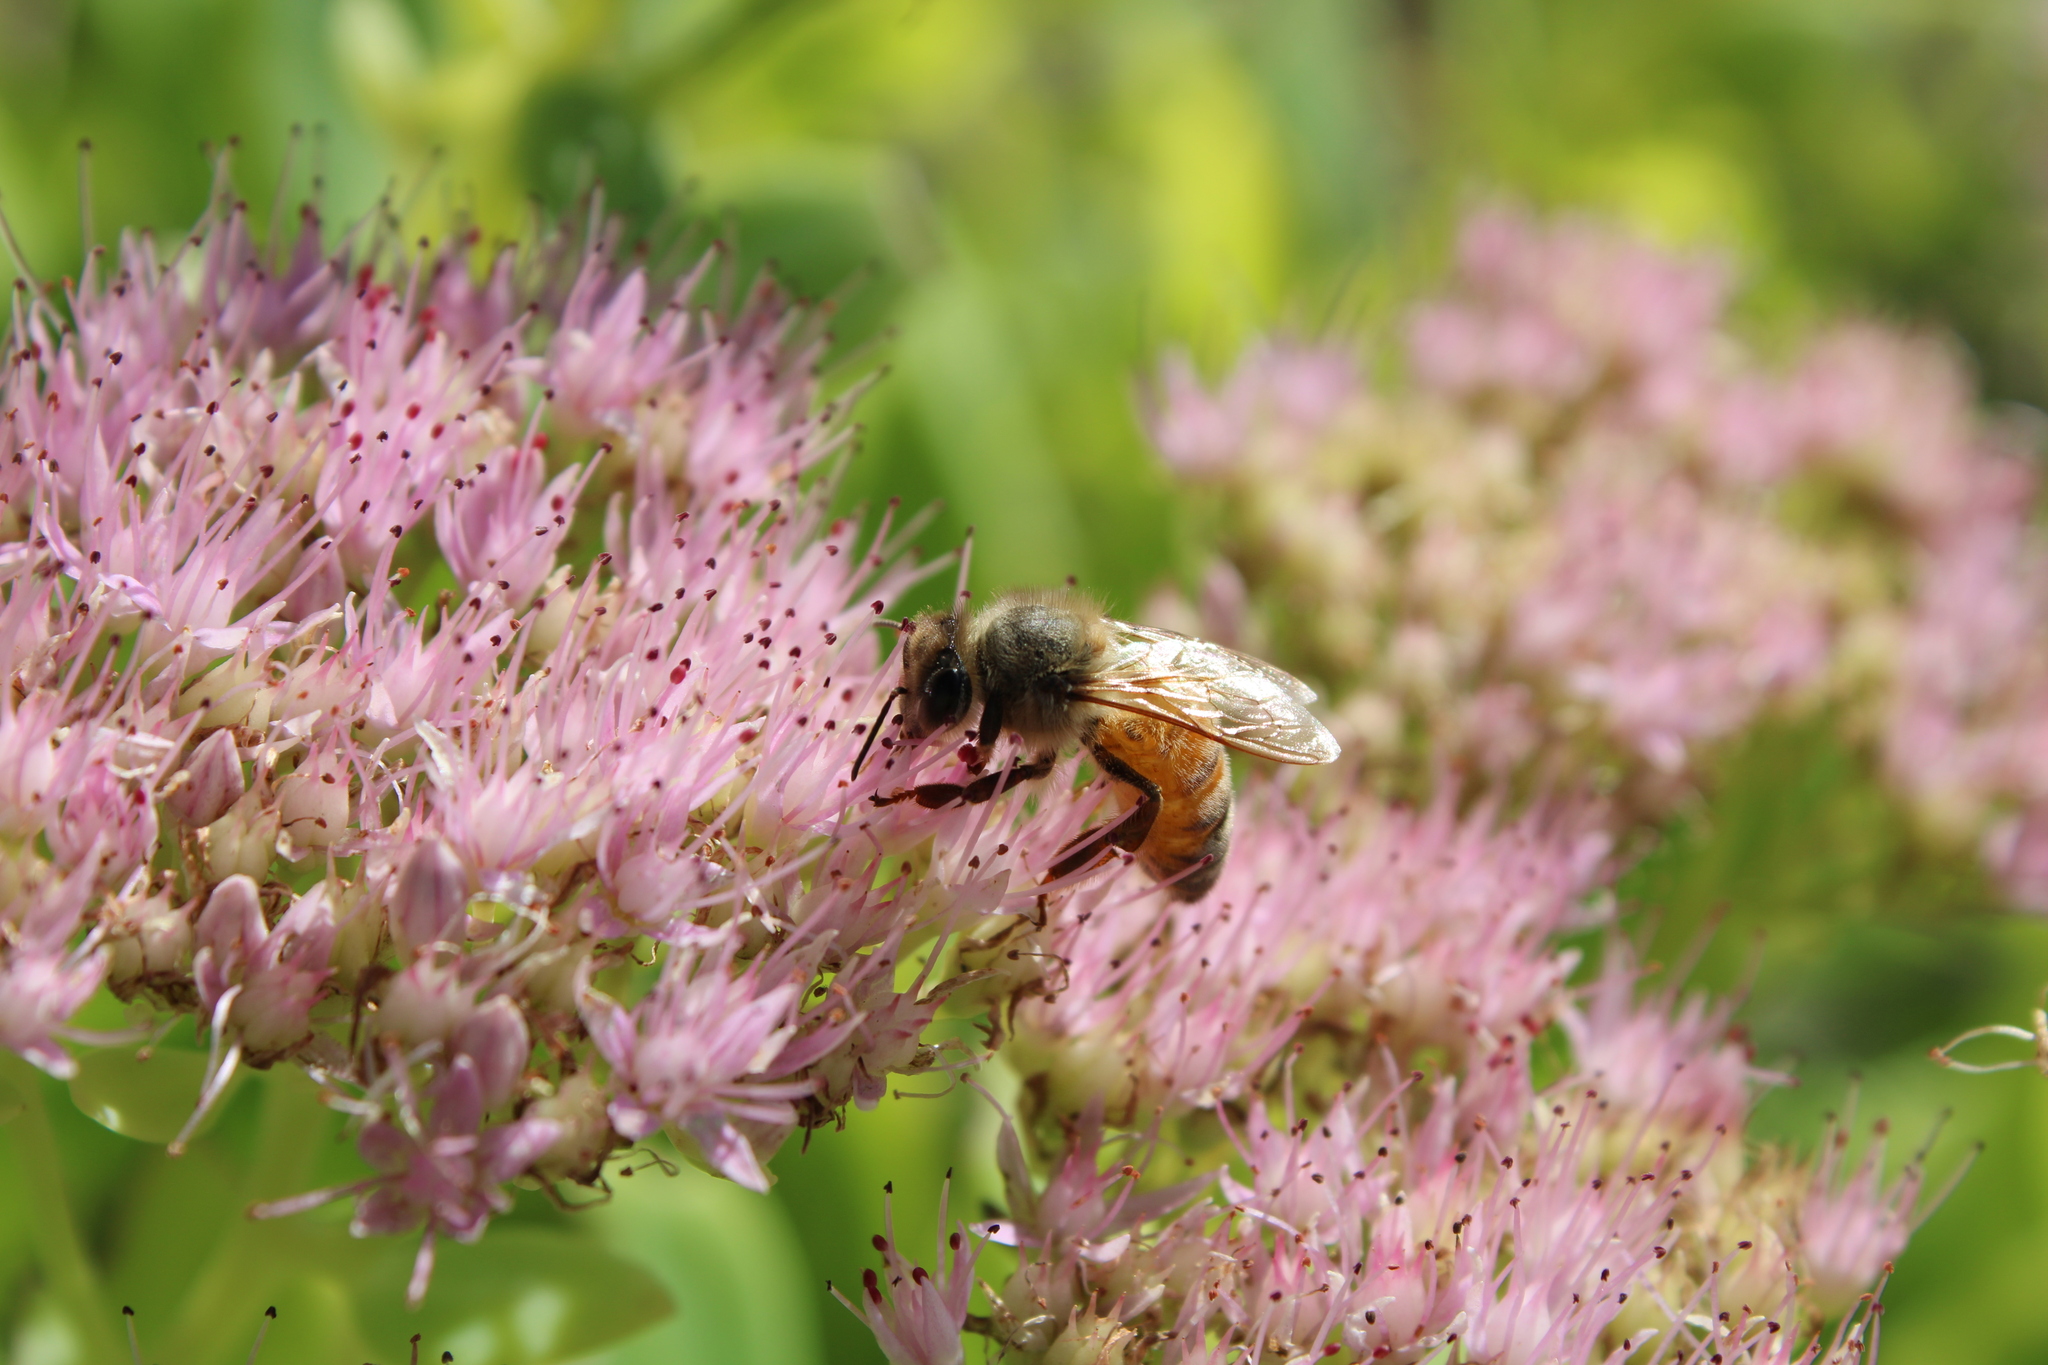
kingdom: Animalia
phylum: Arthropoda
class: Insecta
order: Hymenoptera
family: Apidae
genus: Apis
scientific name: Apis mellifera
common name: Honey bee
